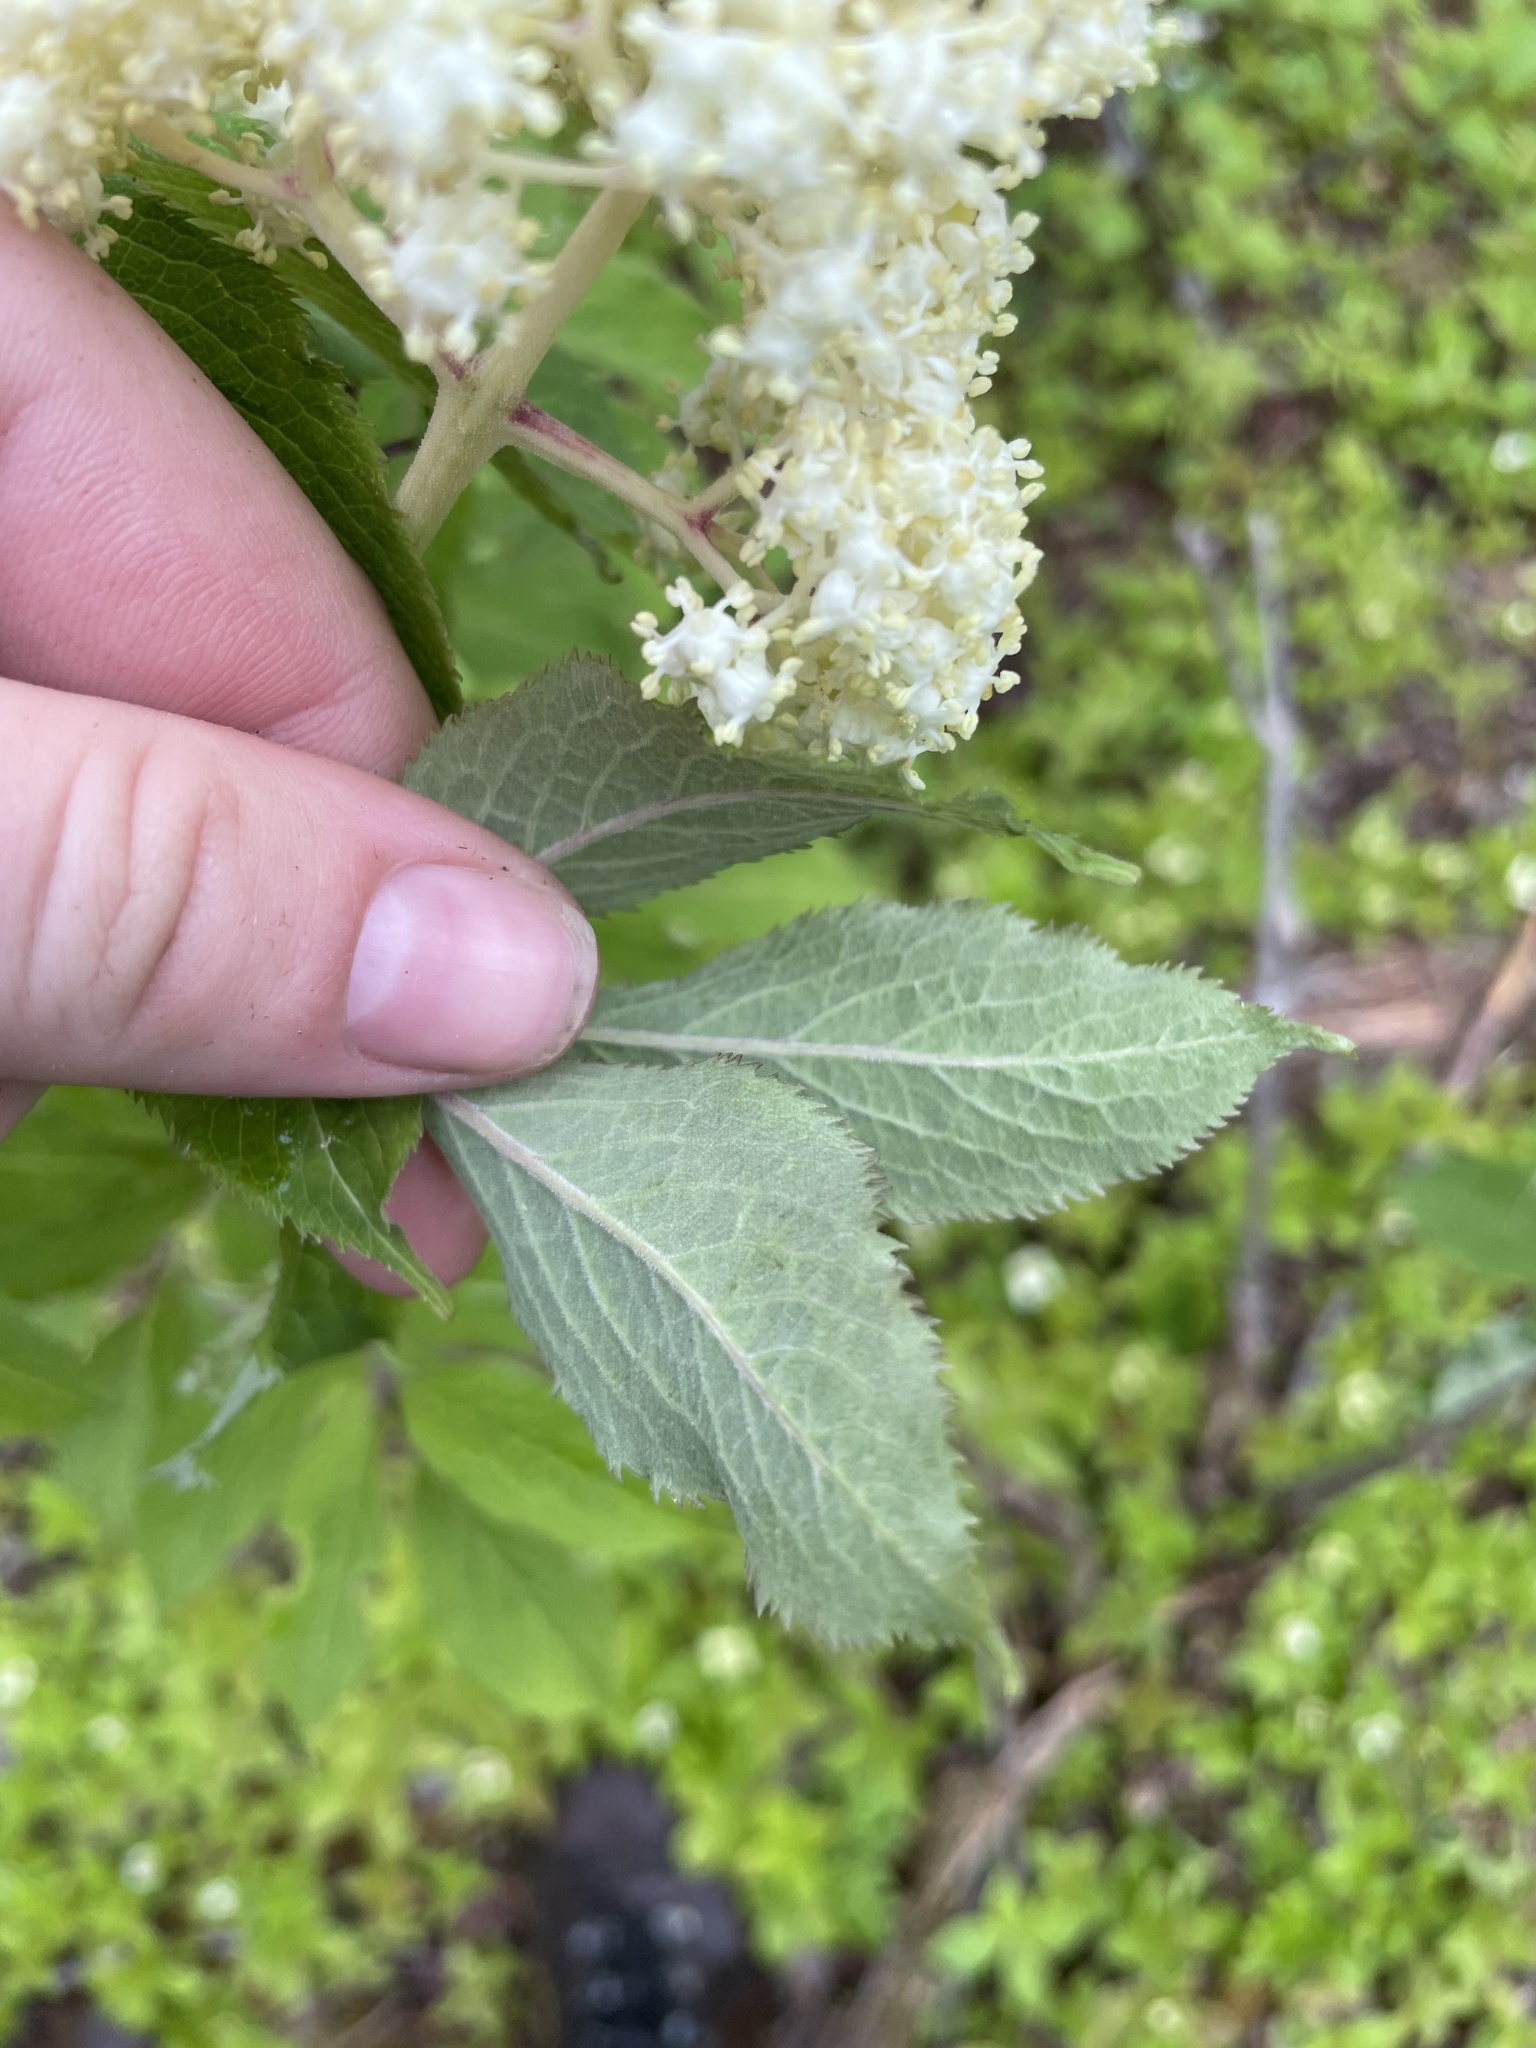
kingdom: Plantae
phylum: Tracheophyta
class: Magnoliopsida
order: Dipsacales
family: Viburnaceae
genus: Sambucus
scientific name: Sambucus racemosa
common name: Red-berried elder
